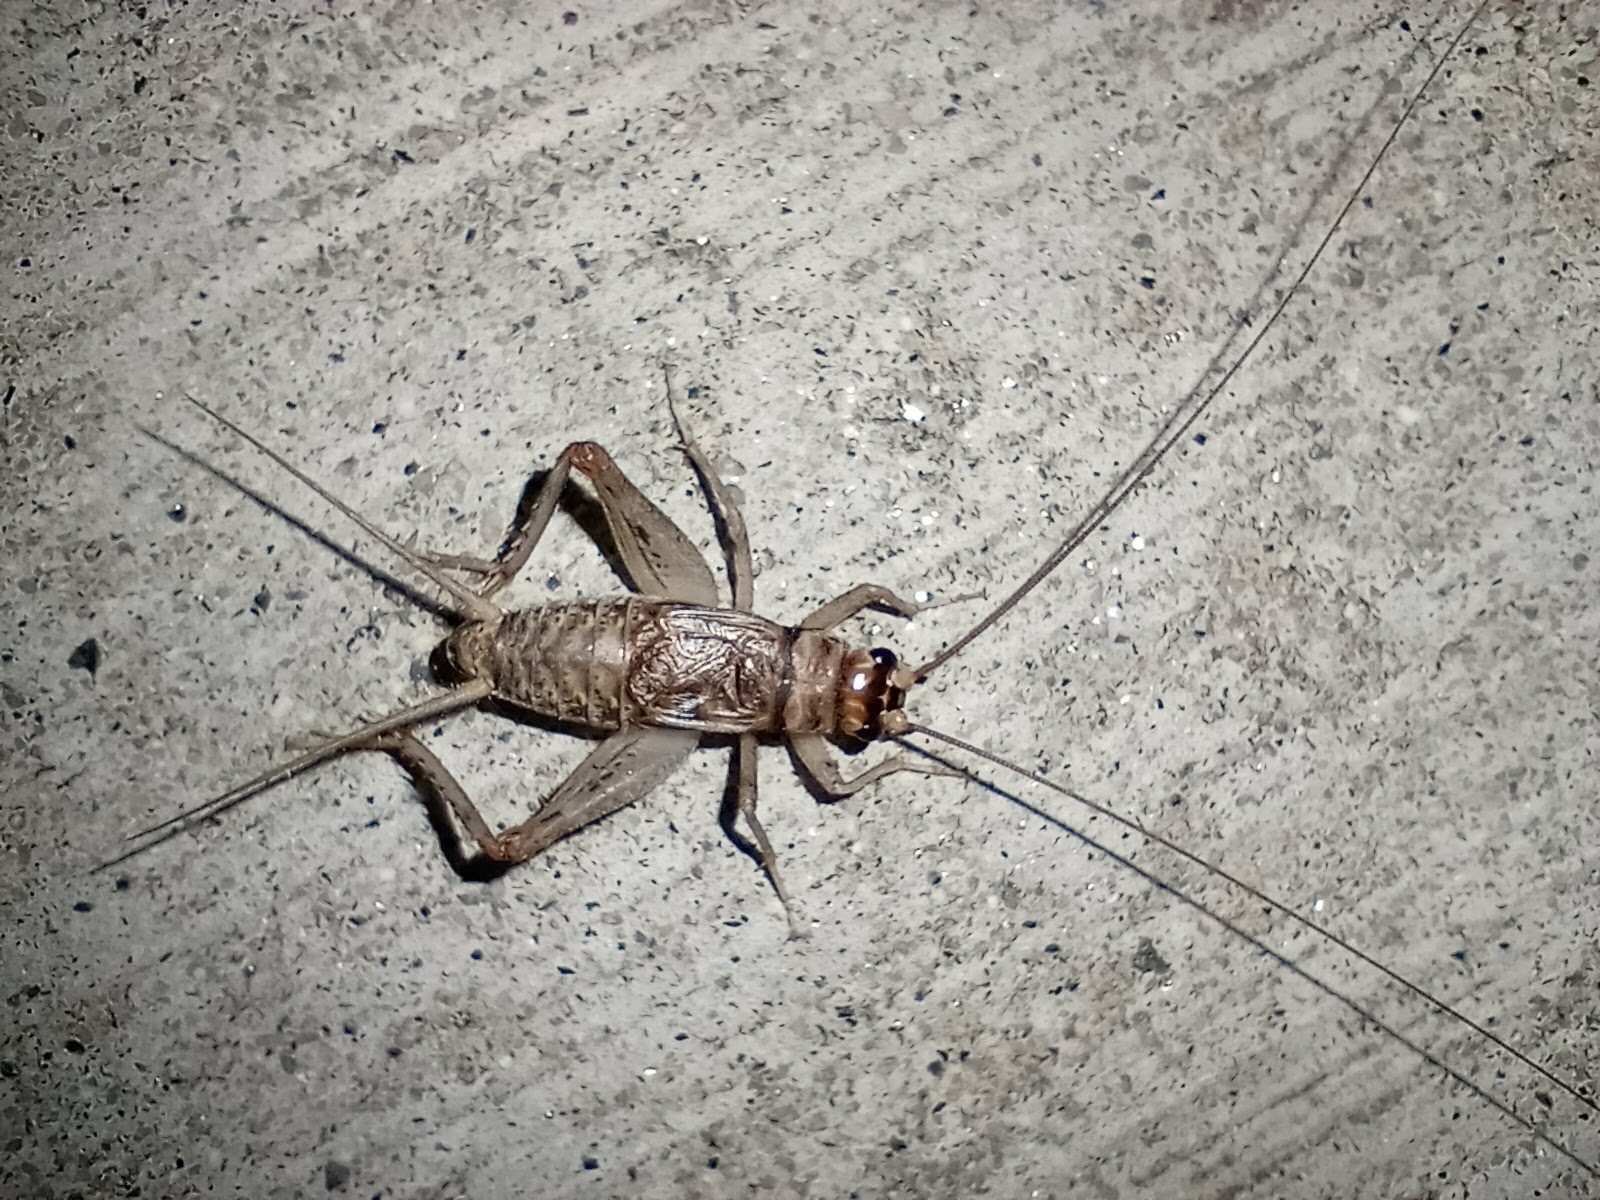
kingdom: Animalia
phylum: Arthropoda
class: Insecta
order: Orthoptera
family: Gryllidae
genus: Gryllodes
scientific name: Gryllodes sigillatus
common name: Tropical house cricket
